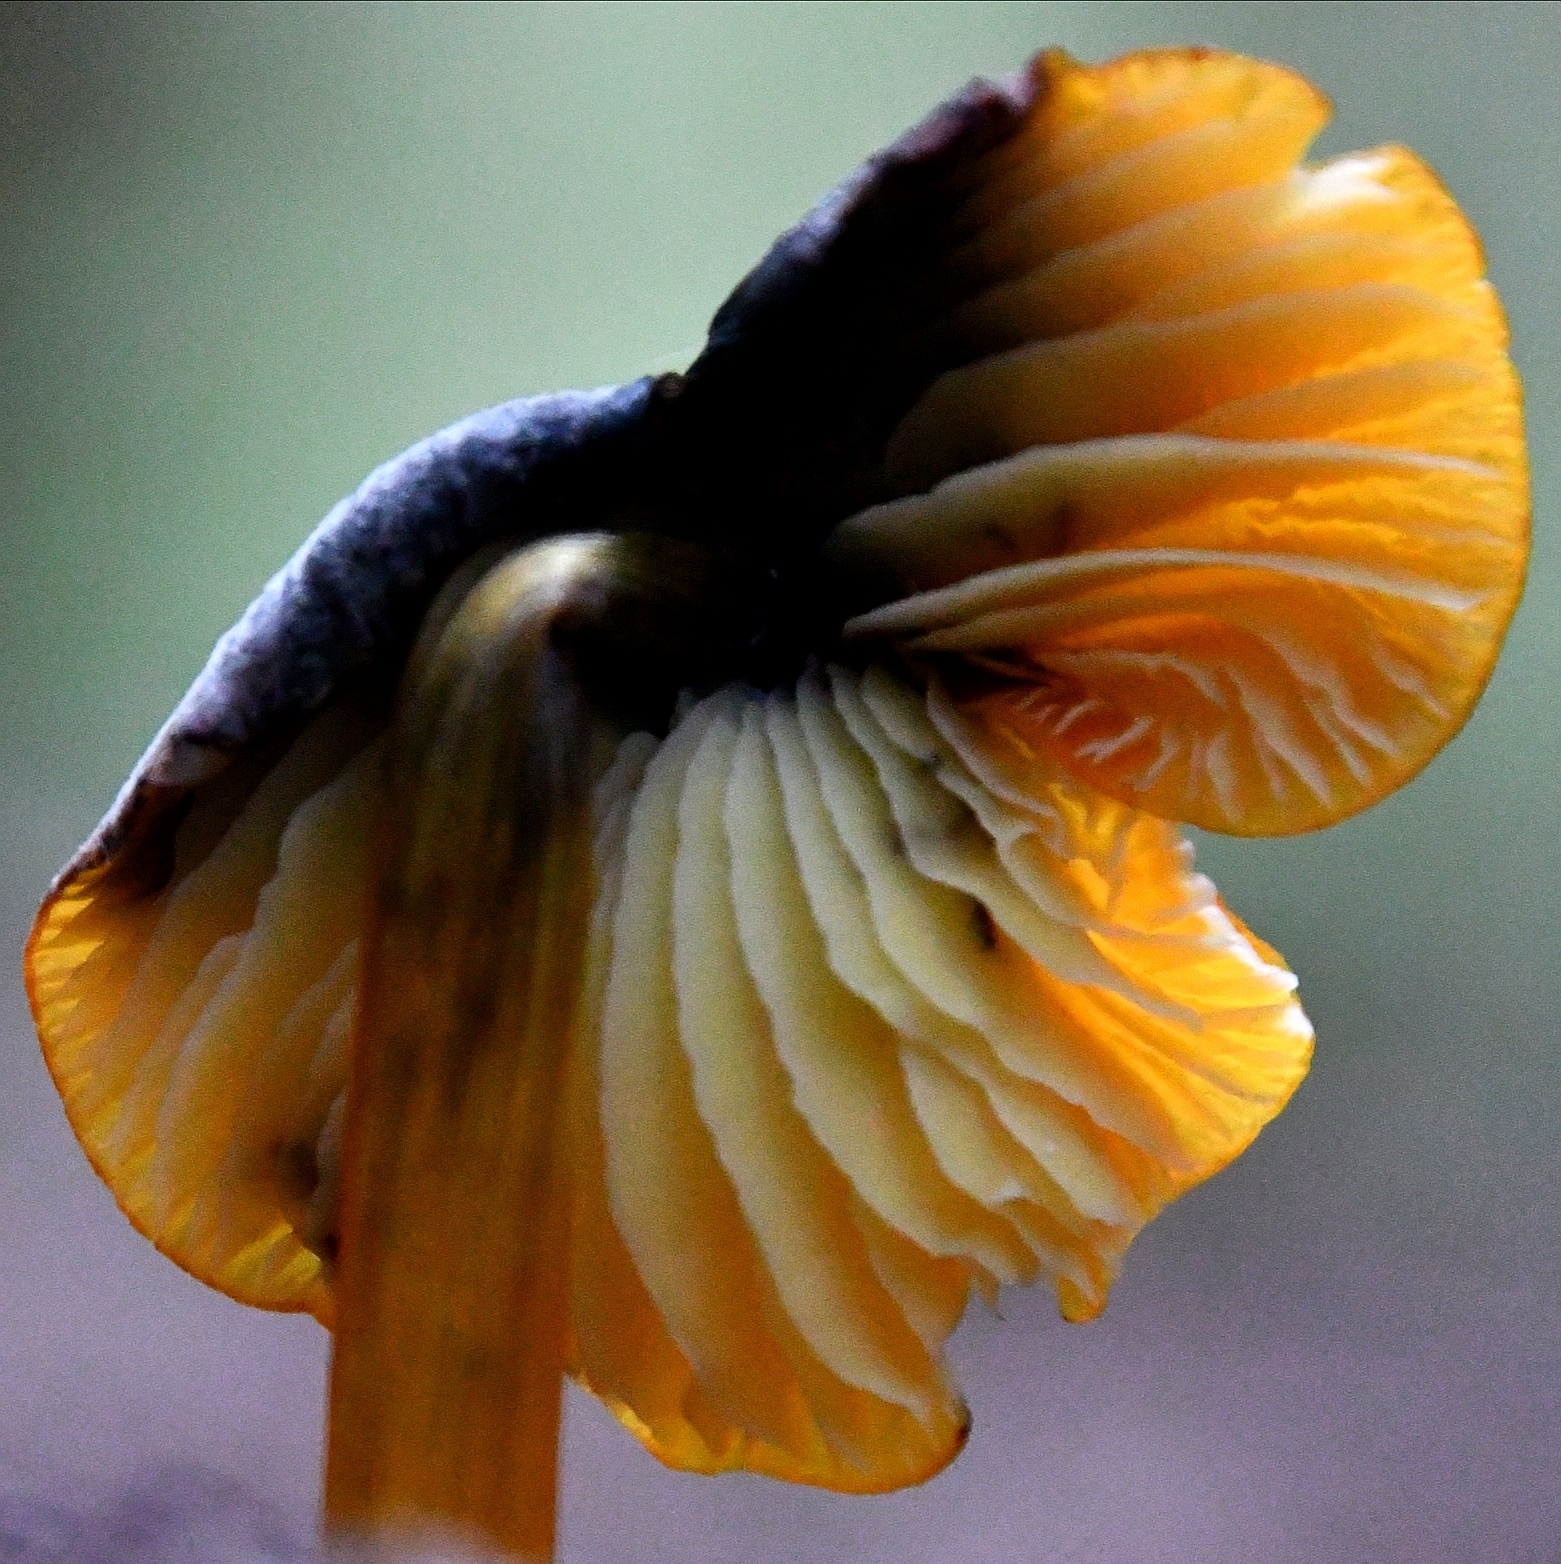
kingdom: Fungi
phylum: Basidiomycota
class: Agaricomycetes
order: Agaricales
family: Hygrophoraceae
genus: Hygrocybe
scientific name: Hygrocybe conica
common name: Blackening wax-cap
